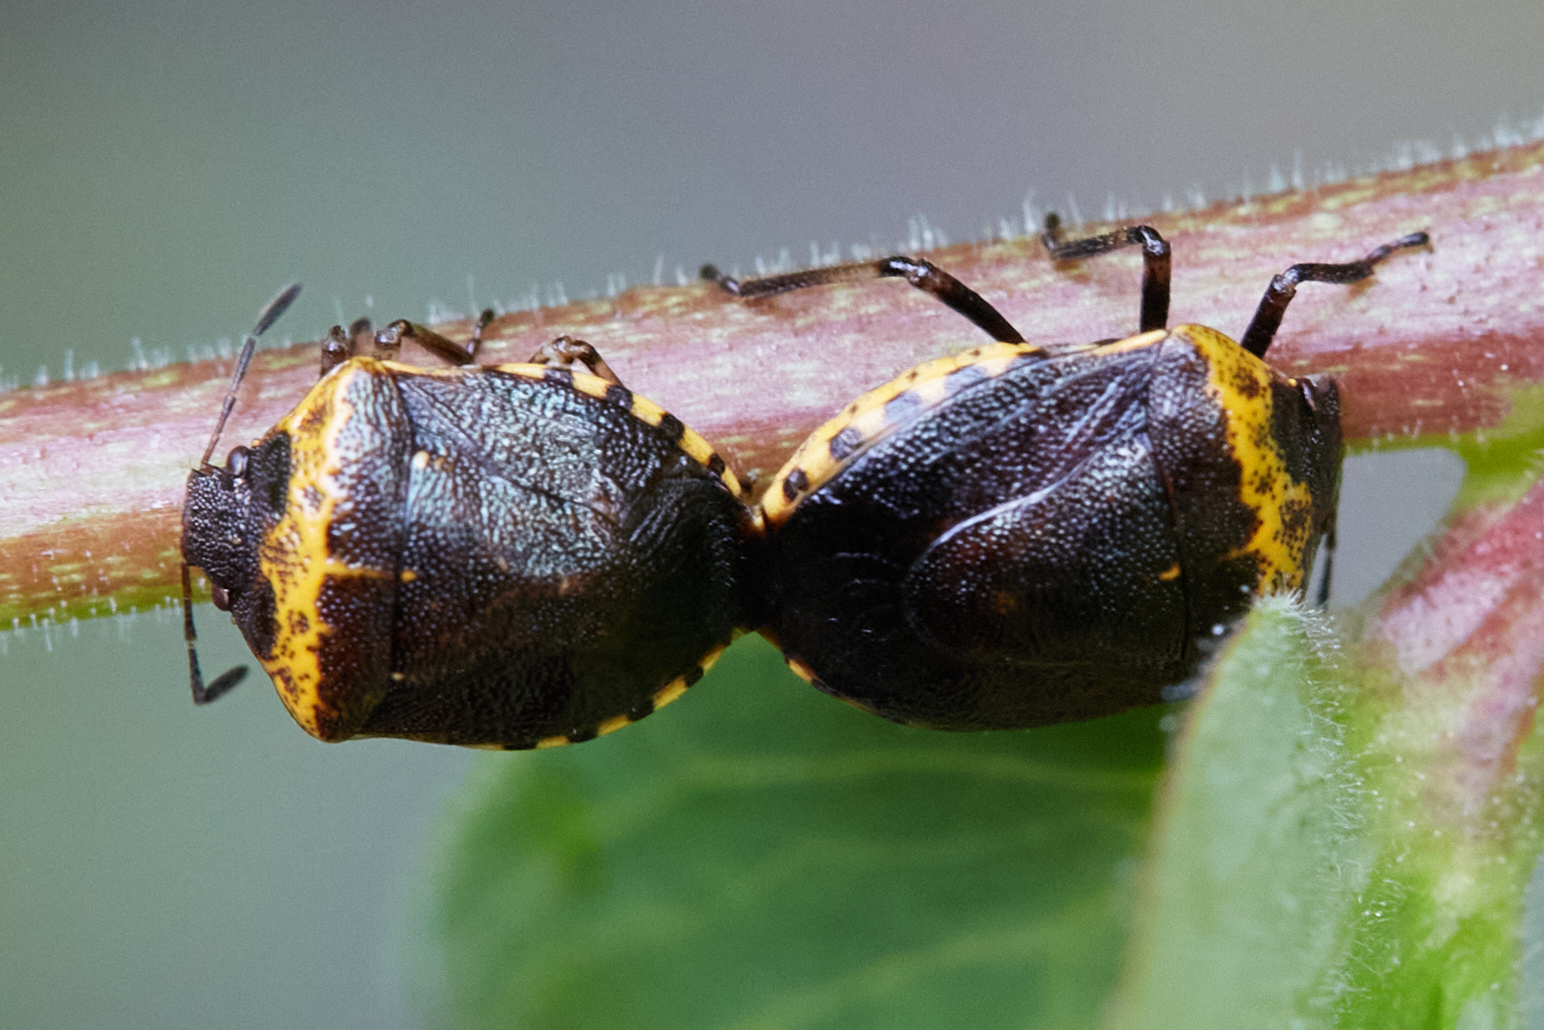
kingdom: Animalia
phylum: Arthropoda
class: Insecta
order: Hemiptera
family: Pentatomidae
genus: Cosmopepla
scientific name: Cosmopepla uhleri
